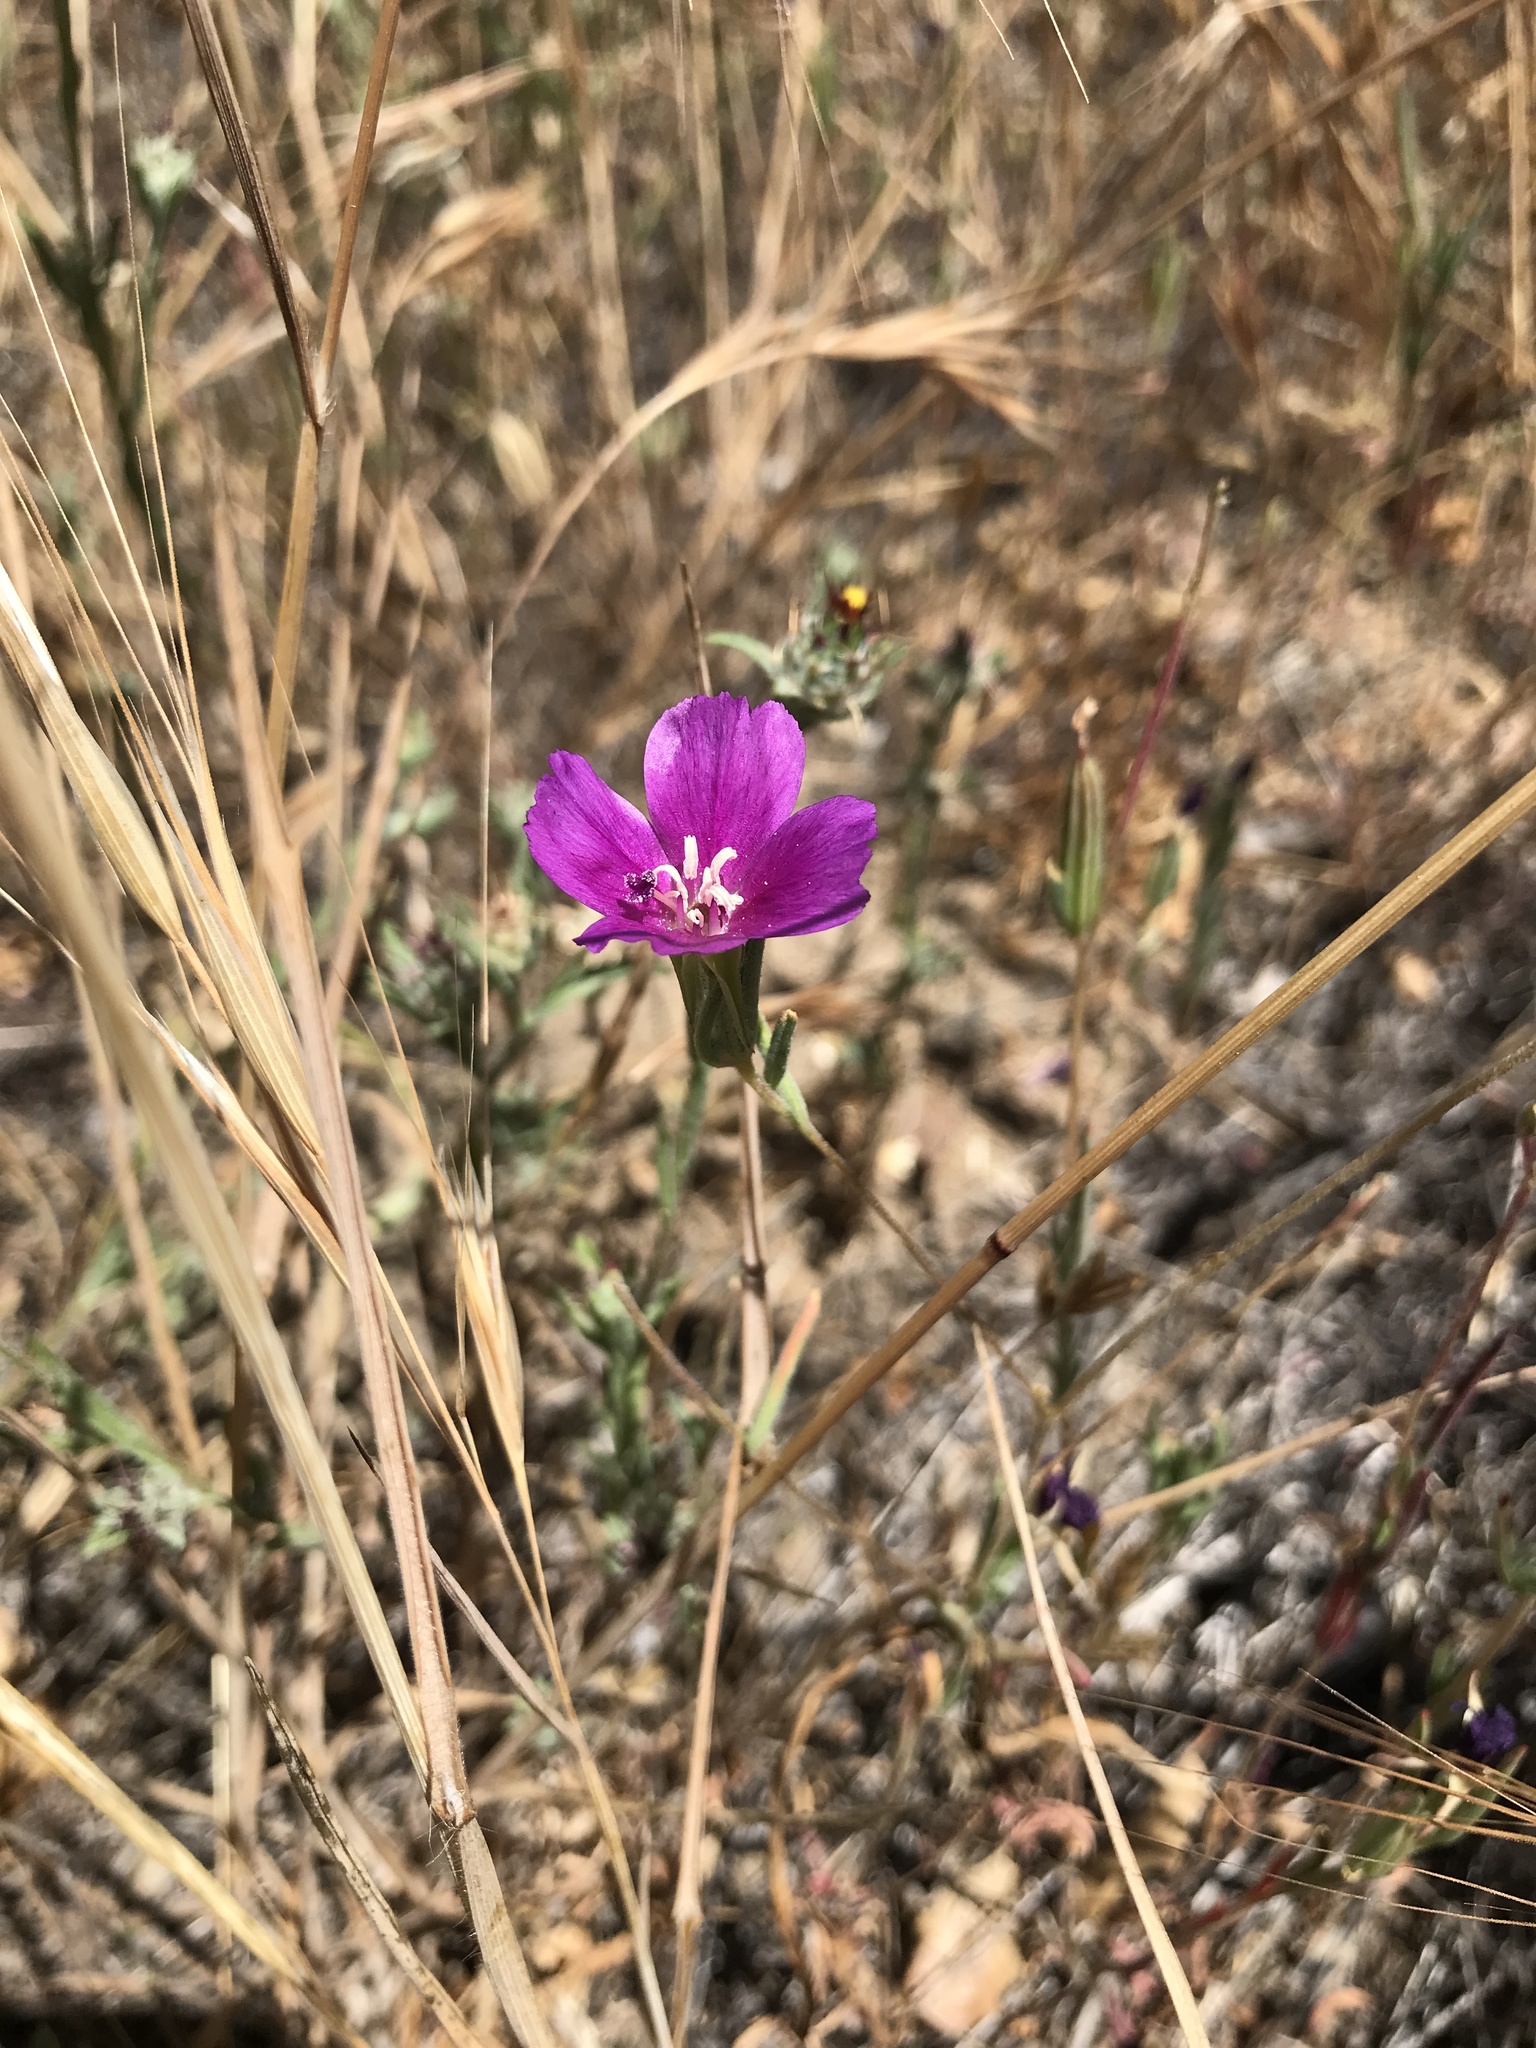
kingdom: Plantae
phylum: Tracheophyta
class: Magnoliopsida
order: Myrtales
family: Onagraceae
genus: Clarkia
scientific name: Clarkia purpurea
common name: Purple clarkia
